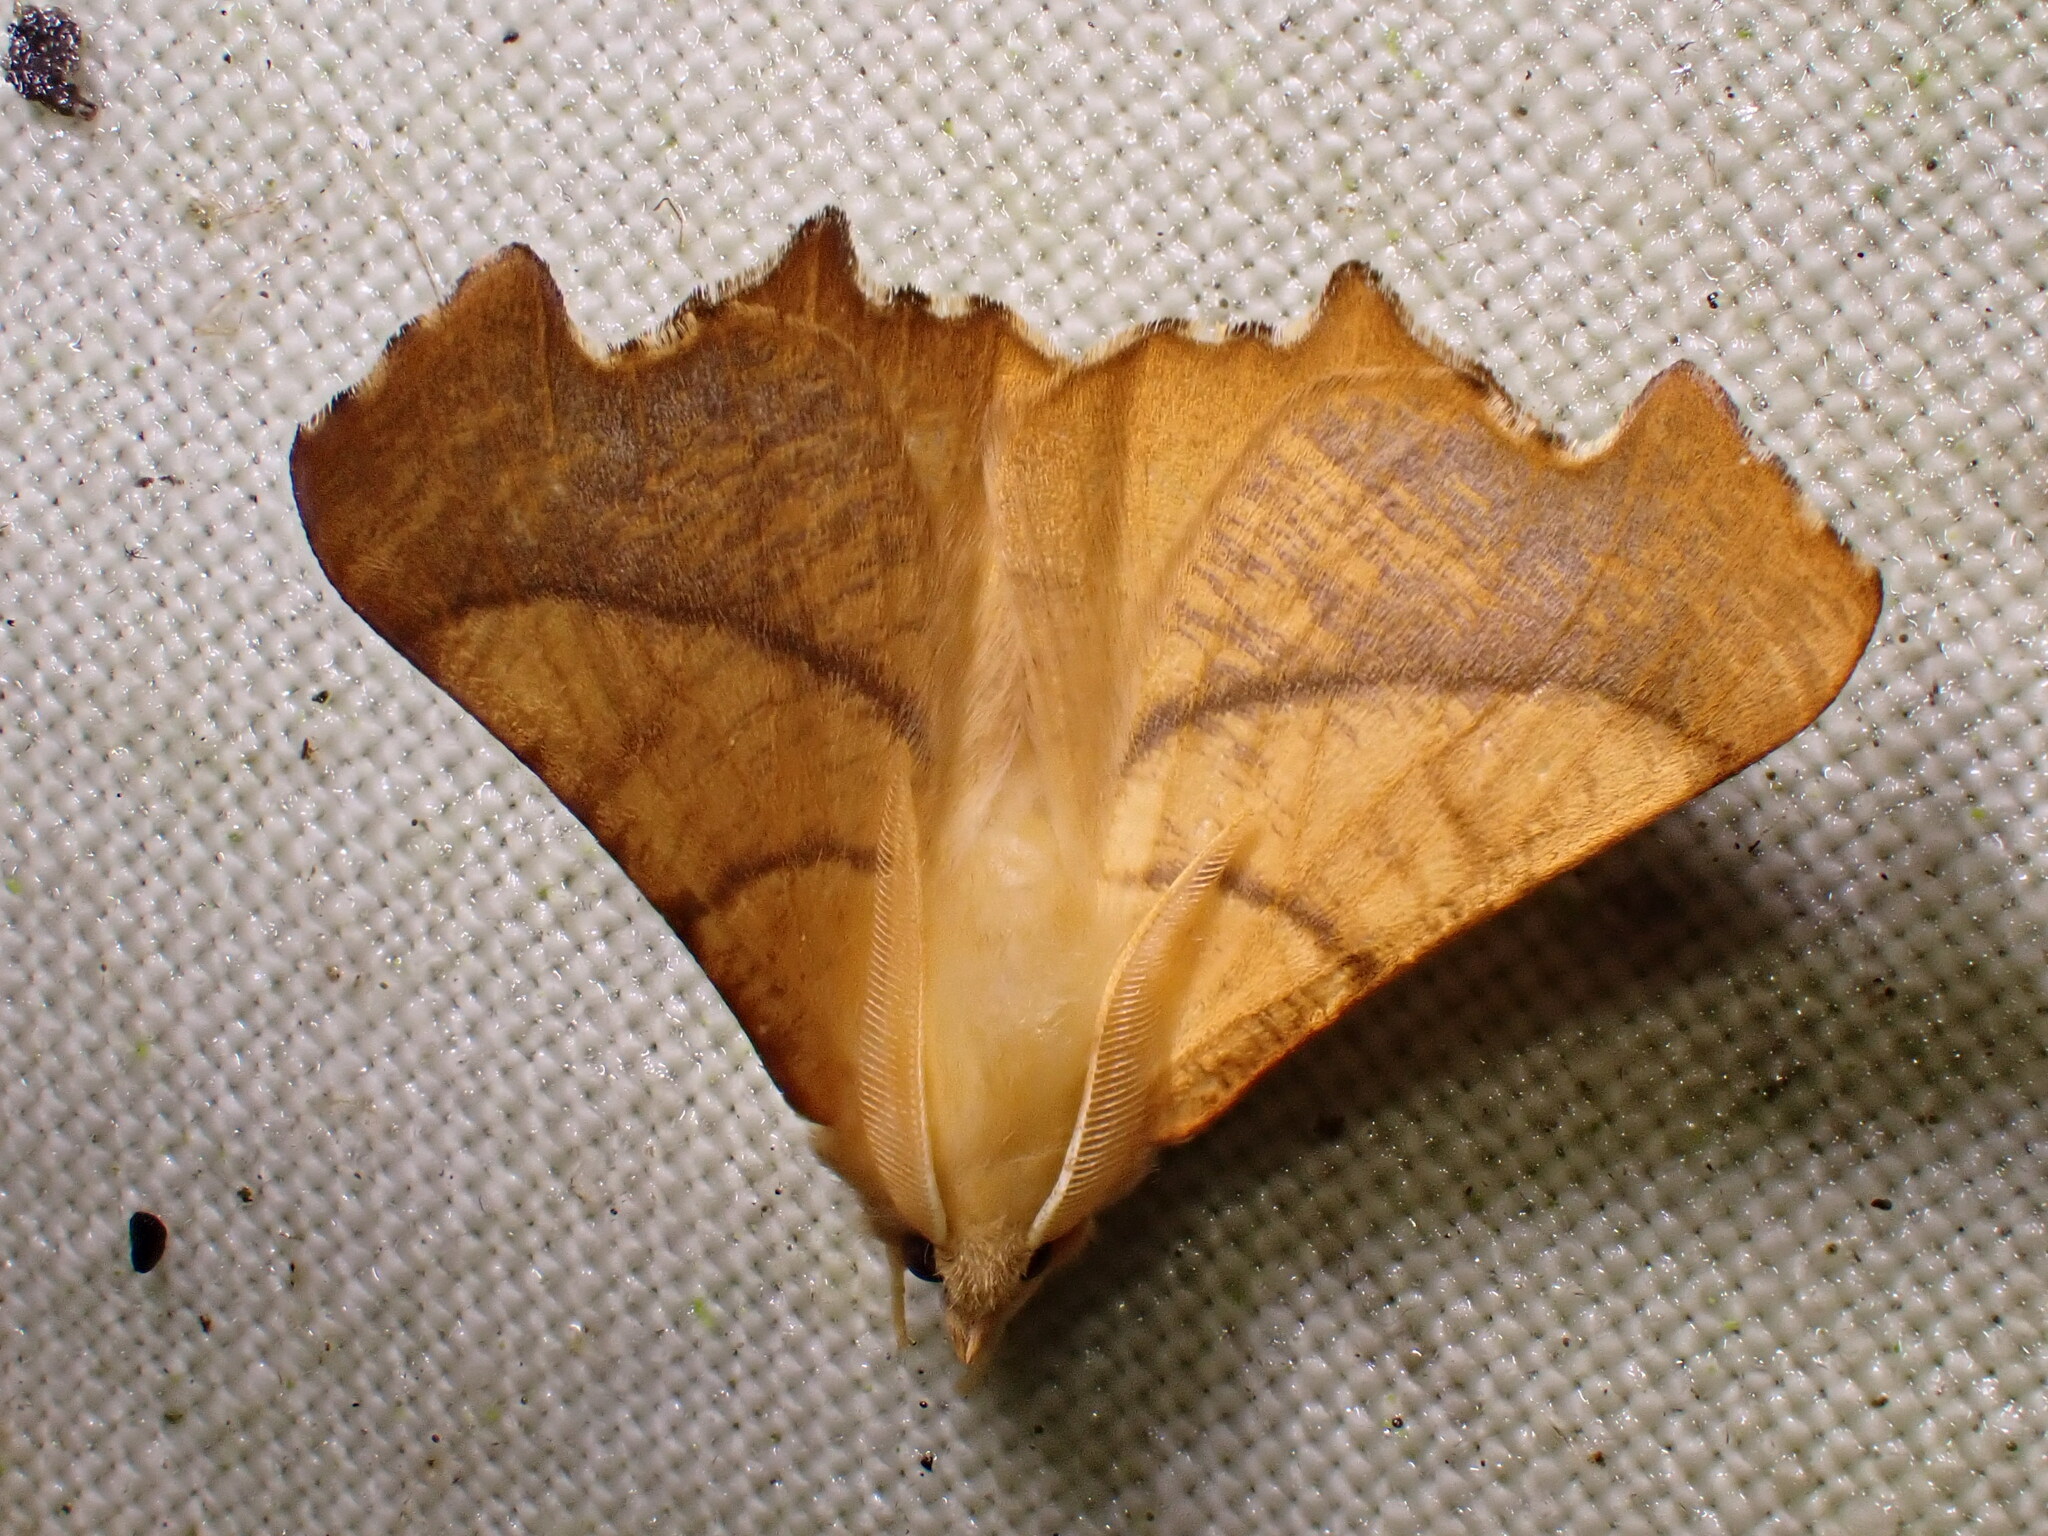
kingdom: Animalia
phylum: Arthropoda
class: Insecta
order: Lepidoptera
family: Geometridae
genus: Ennomos
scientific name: Ennomos fuscantaria
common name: Dusky thorn
